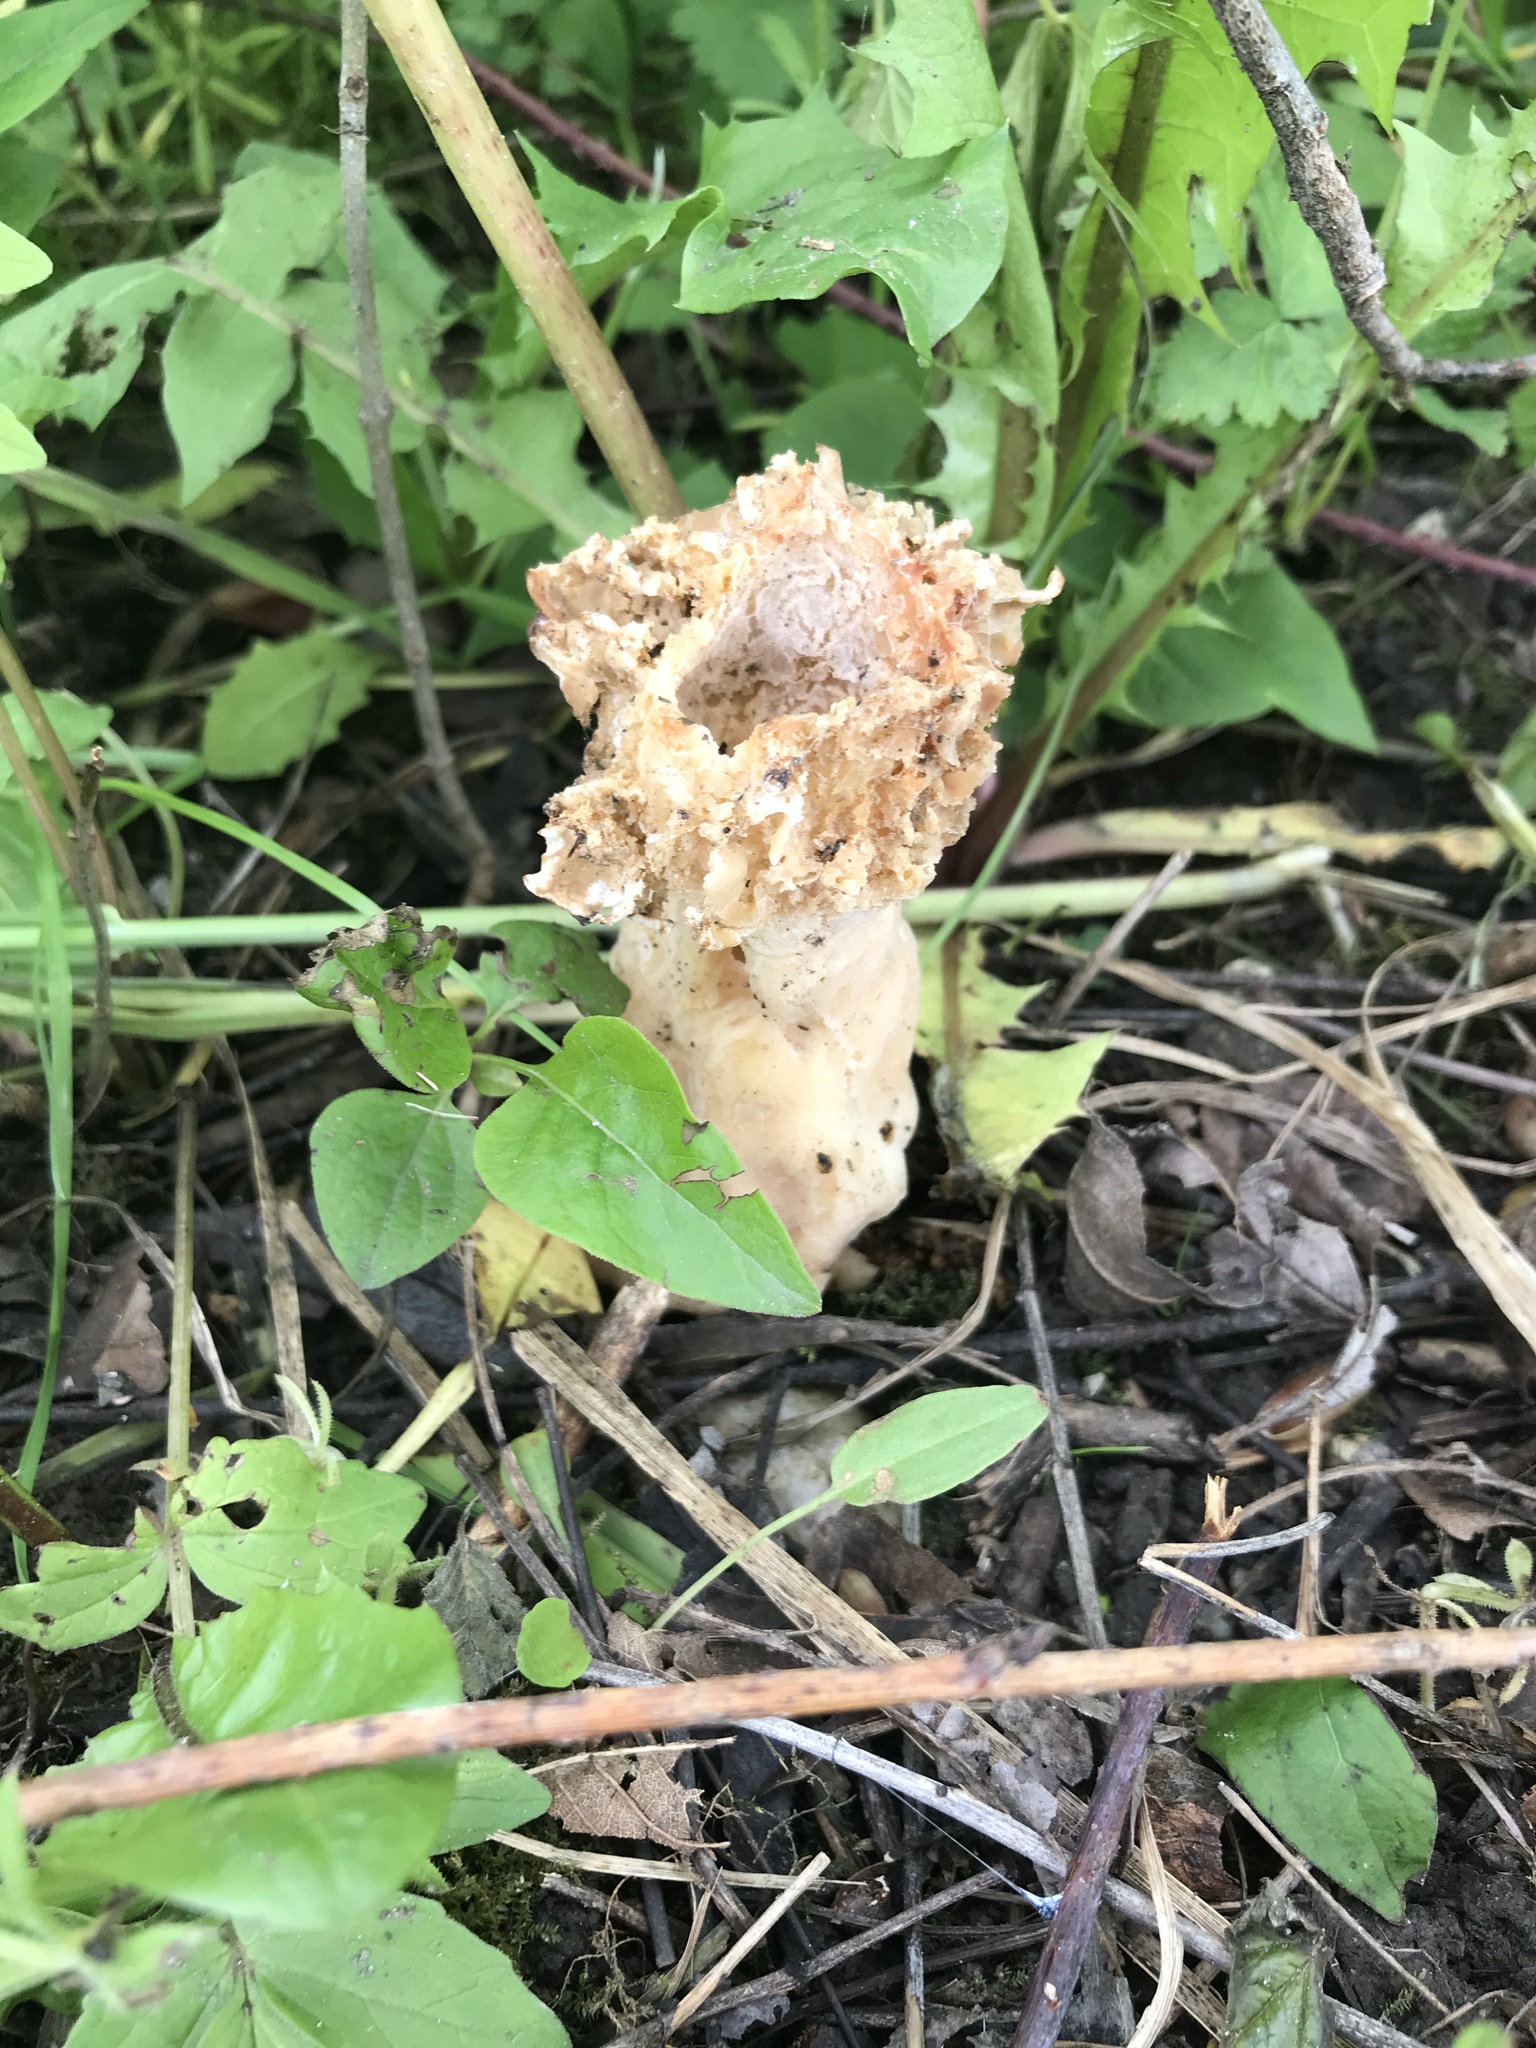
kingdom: Fungi
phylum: Ascomycota
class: Pezizomycetes
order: Pezizales
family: Morchellaceae
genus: Morchella
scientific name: Morchella
